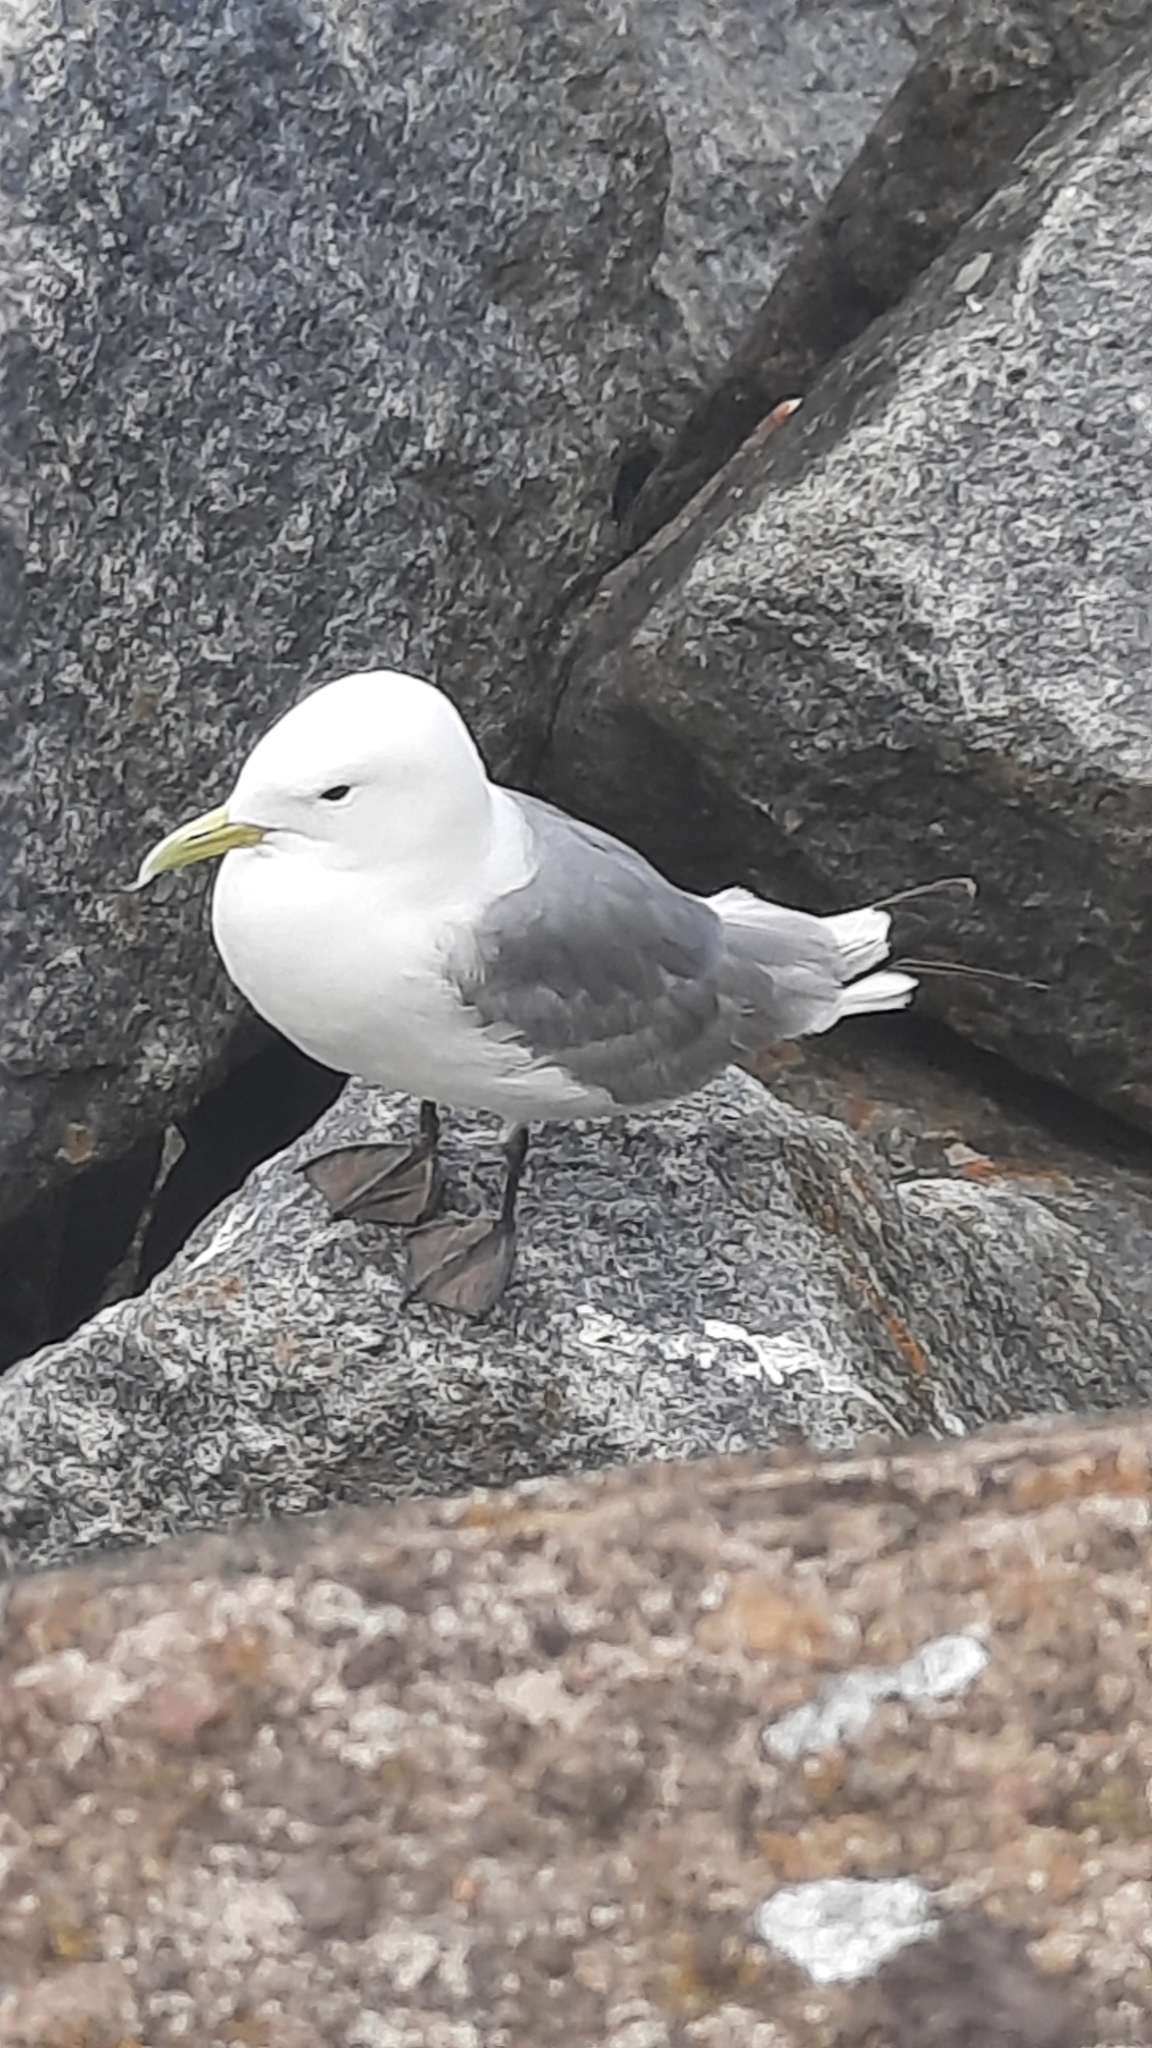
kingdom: Animalia
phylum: Chordata
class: Aves
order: Charadriiformes
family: Laridae
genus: Rissa
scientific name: Rissa tridactyla
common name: Black-legged kittiwake
